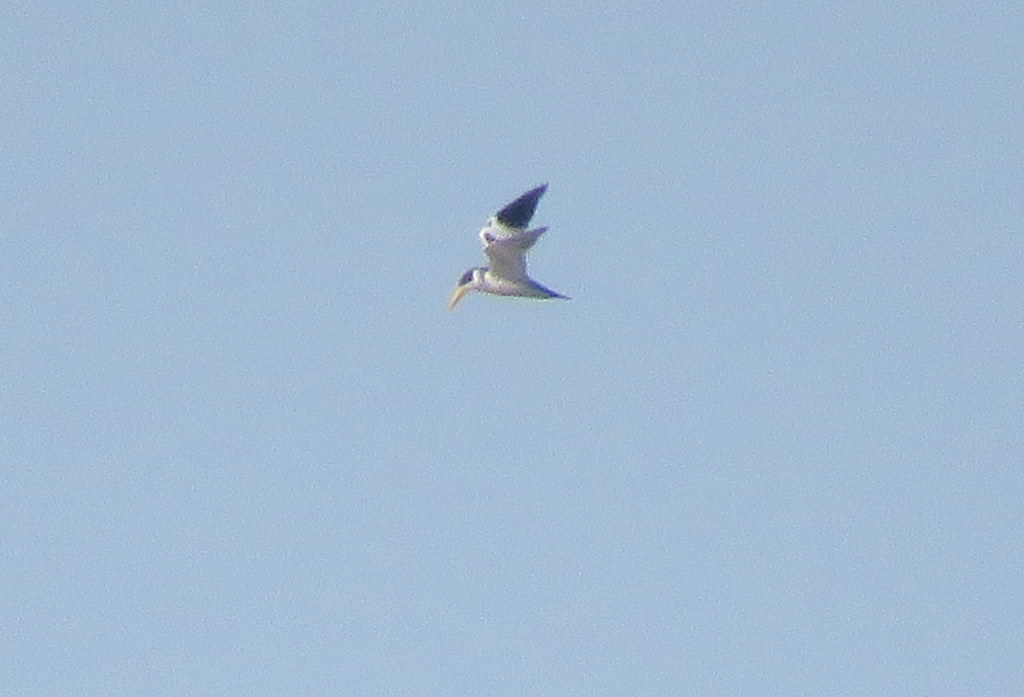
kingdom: Animalia
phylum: Chordata
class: Aves
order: Charadriiformes
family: Laridae
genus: Phaetusa
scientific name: Phaetusa simplex
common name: Large-billed tern
